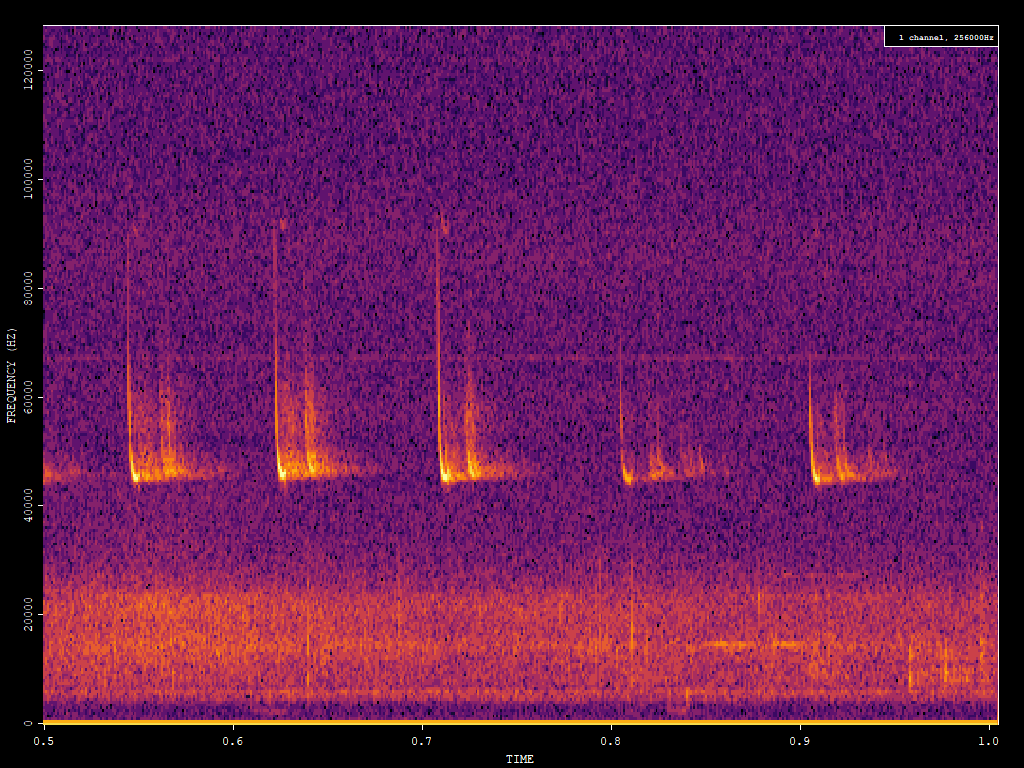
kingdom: Animalia
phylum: Chordata
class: Mammalia
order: Chiroptera
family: Vespertilionidae
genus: Pipistrellus
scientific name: Pipistrellus pipistrellus
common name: Common pipistrelle
